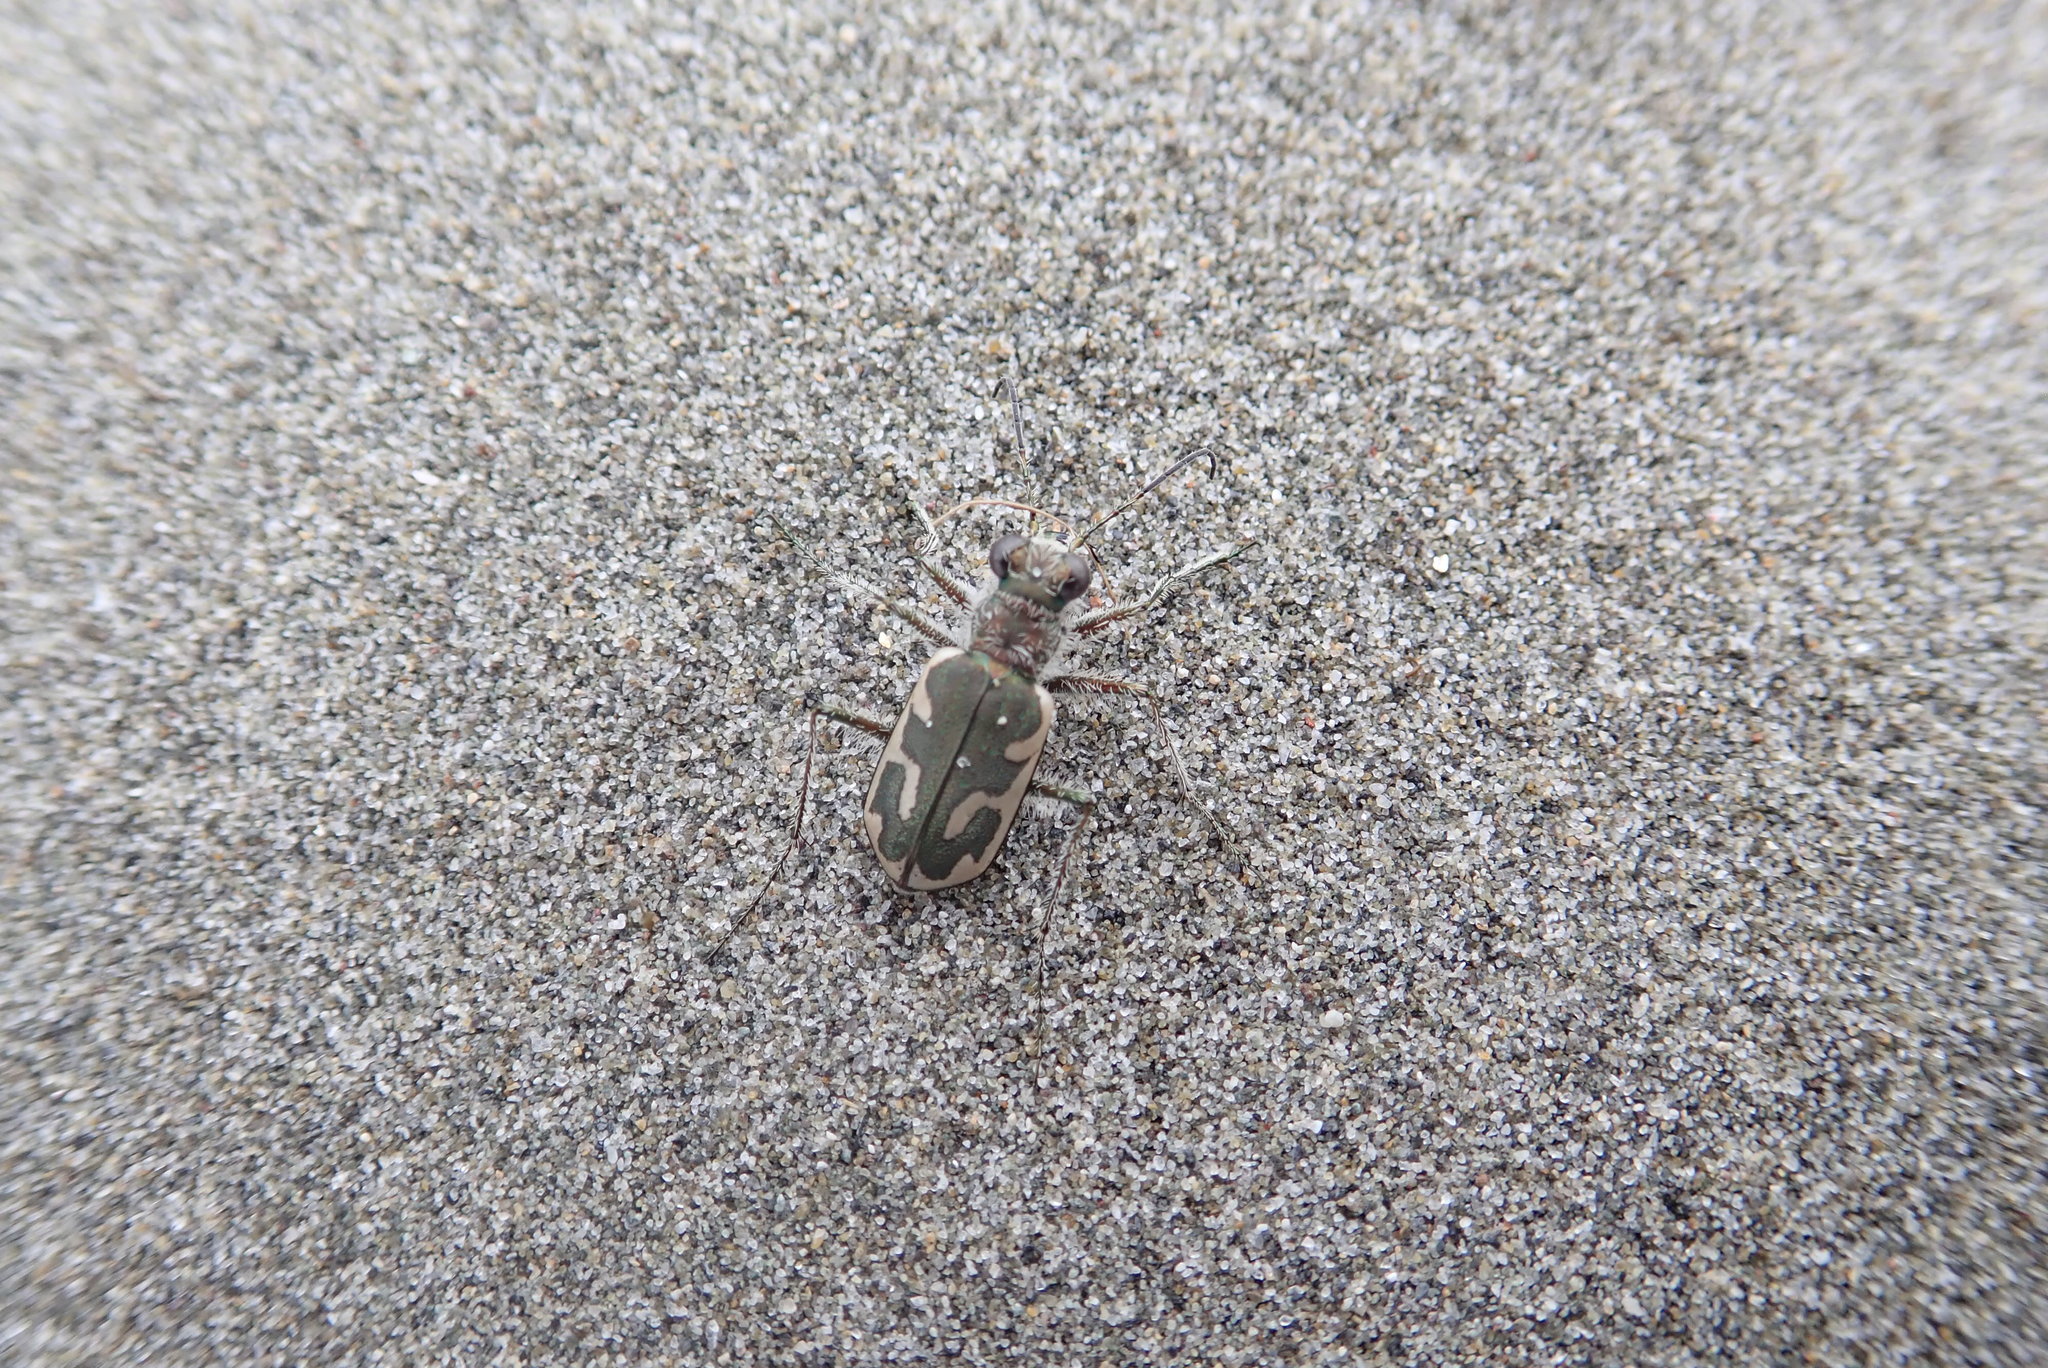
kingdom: Animalia
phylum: Arthropoda
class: Insecta
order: Coleoptera
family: Carabidae
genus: Zecicindela
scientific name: Zecicindela feredayi
